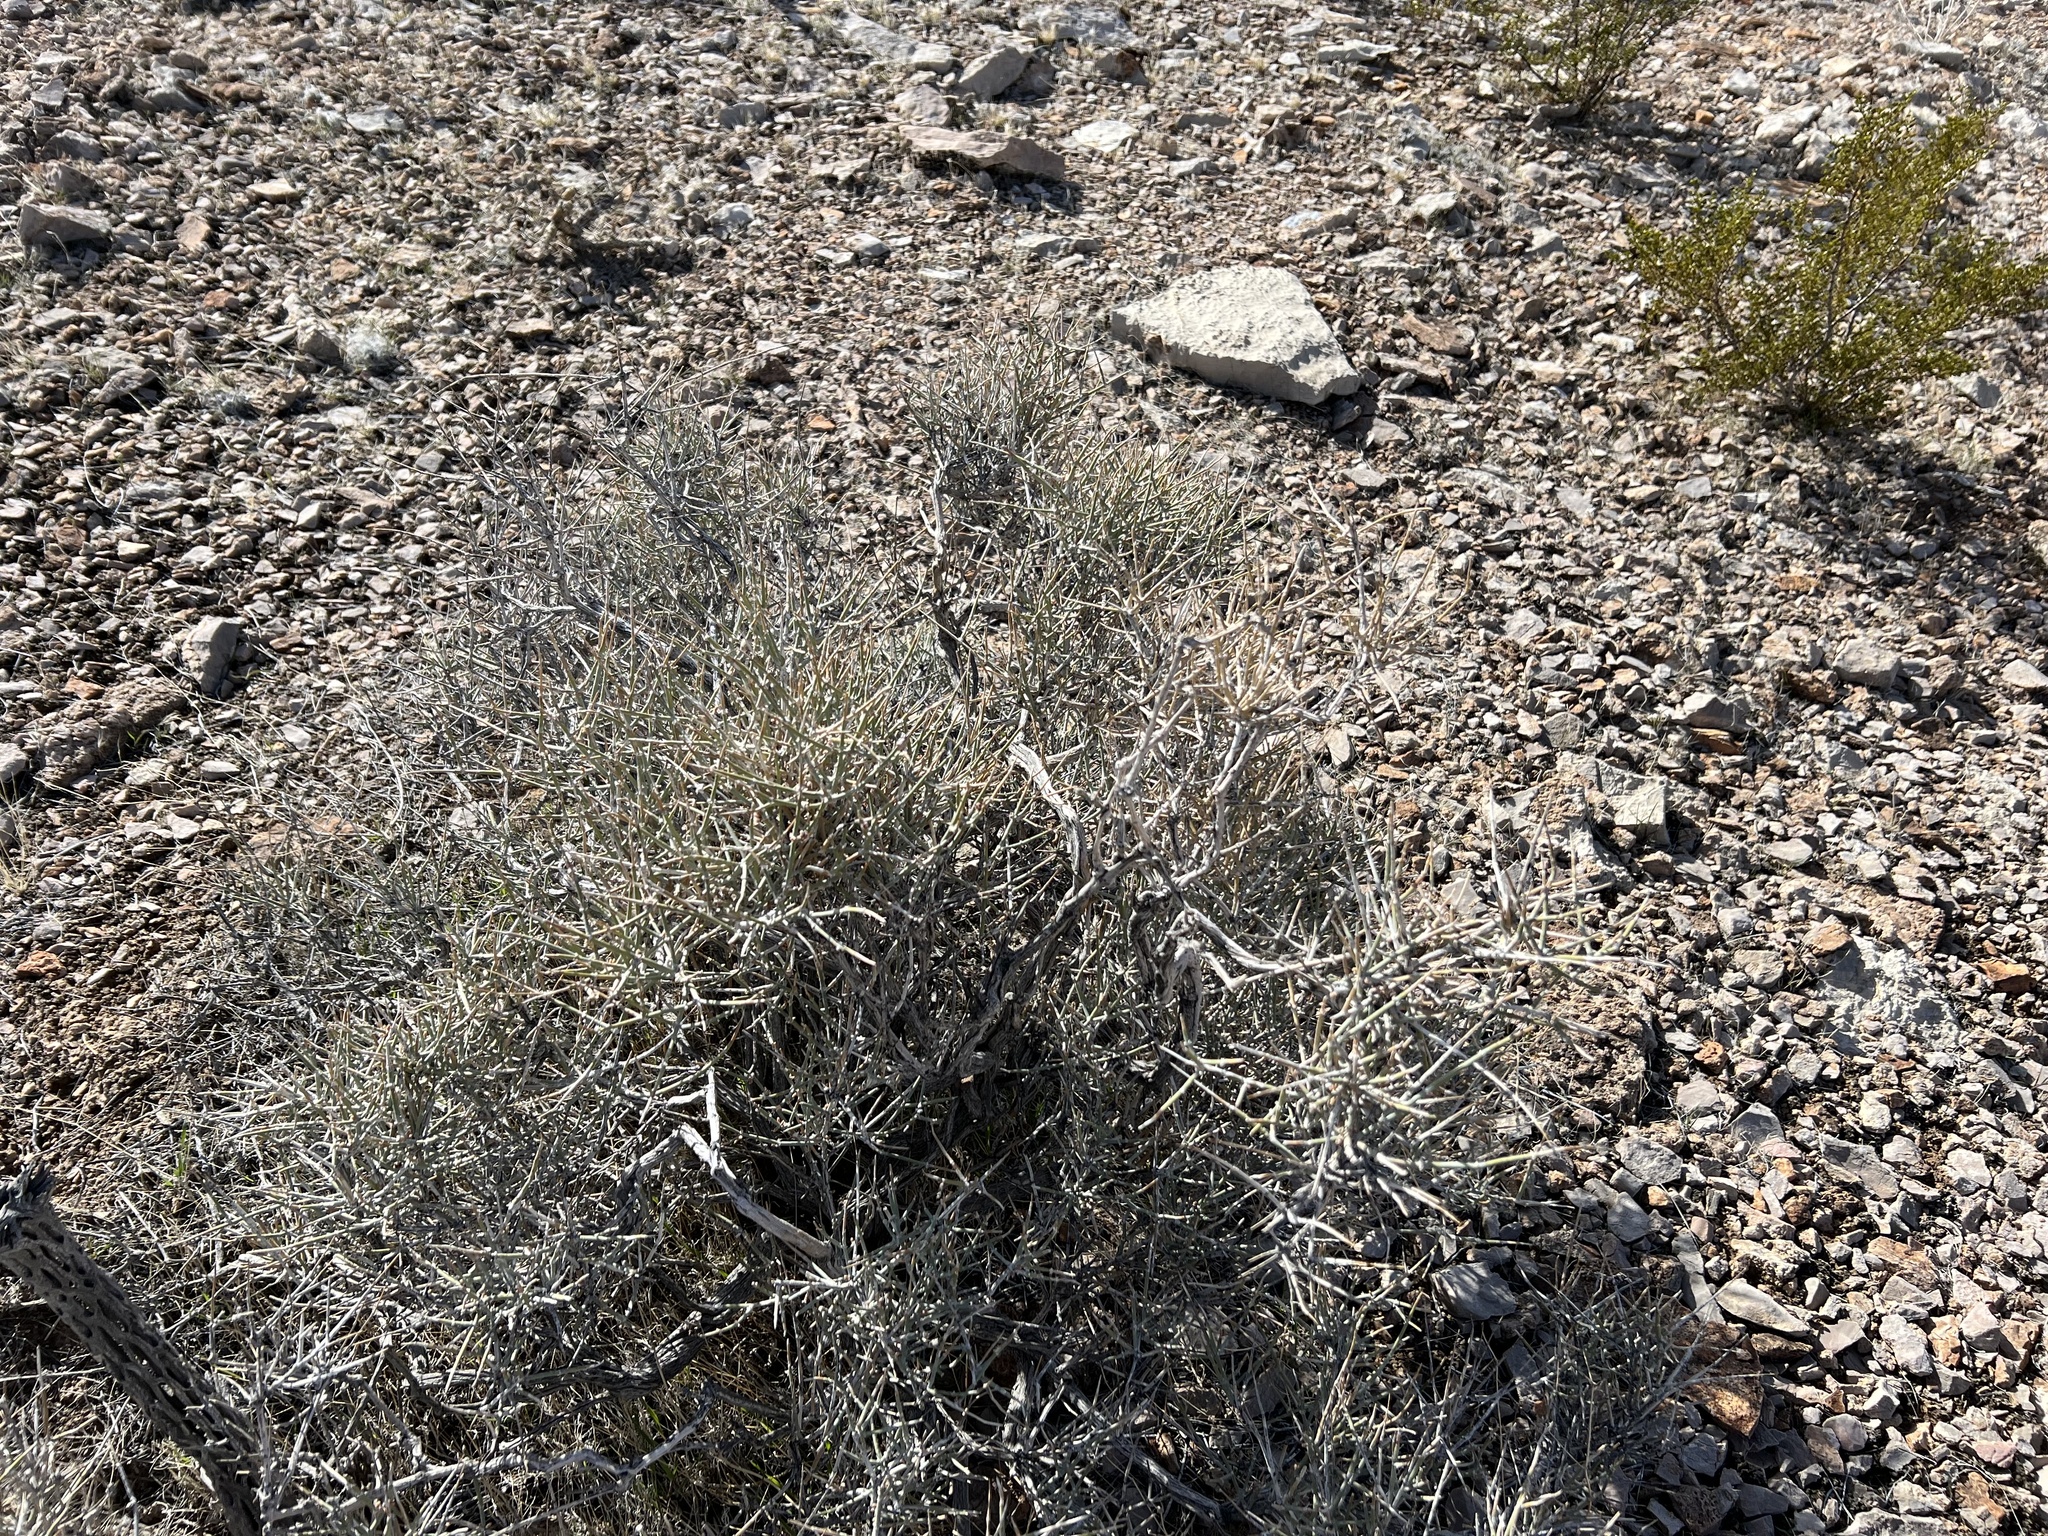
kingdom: Plantae
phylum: Tracheophyta
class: Gnetopsida
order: Ephedrales
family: Ephedraceae
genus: Ephedra
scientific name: Ephedra nevadensis
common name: Gray ephedra
